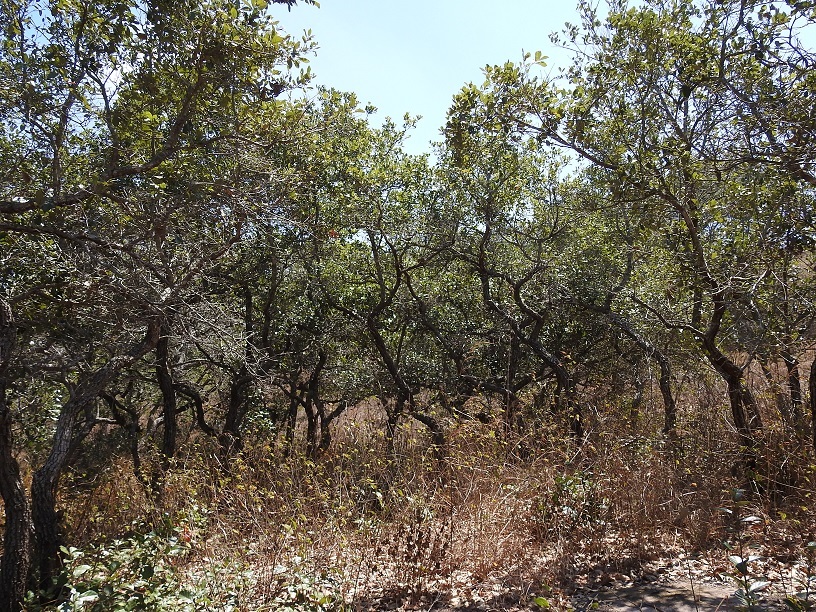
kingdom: Plantae
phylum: Tracheophyta
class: Magnoliopsida
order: Fagales
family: Fagaceae
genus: Quercus
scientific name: Quercus oleoides
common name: White oak
